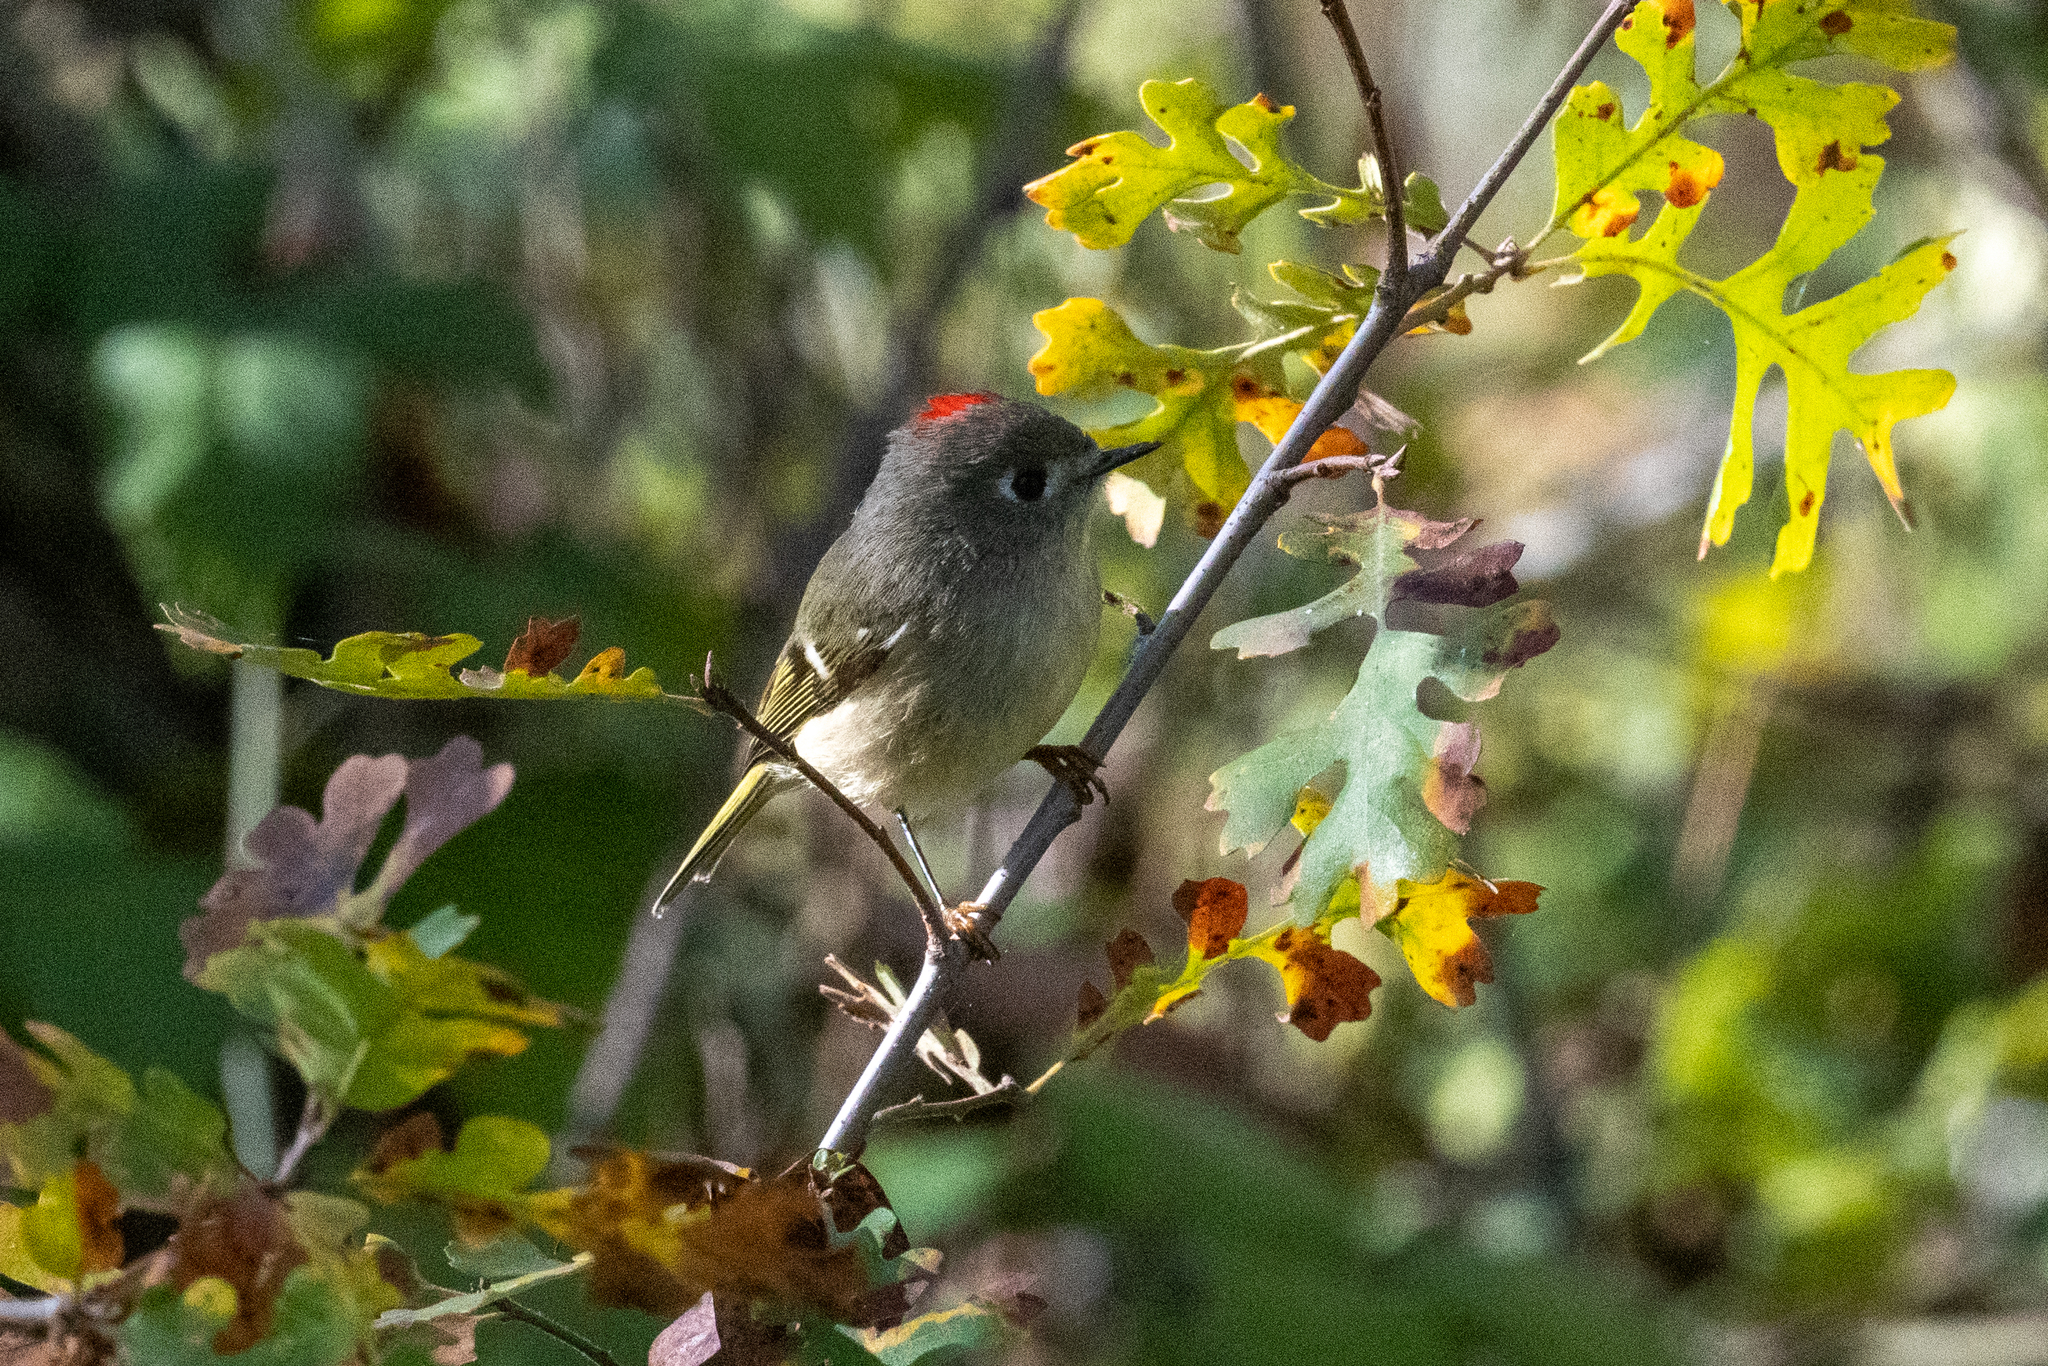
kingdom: Animalia
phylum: Chordata
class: Aves
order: Passeriformes
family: Regulidae
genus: Regulus
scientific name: Regulus calendula
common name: Ruby-crowned kinglet
